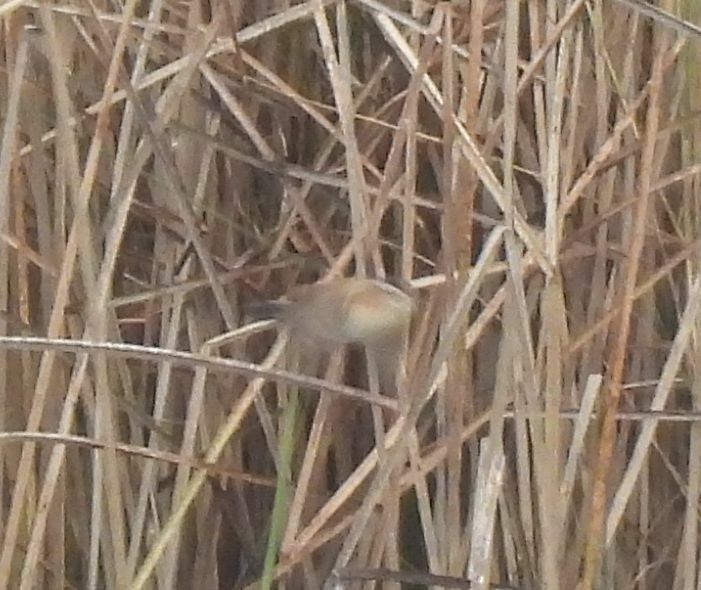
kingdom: Animalia
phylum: Chordata
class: Aves
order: Passeriformes
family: Troglodytidae
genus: Cistothorus
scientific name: Cistothorus palustris
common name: Marsh wren
